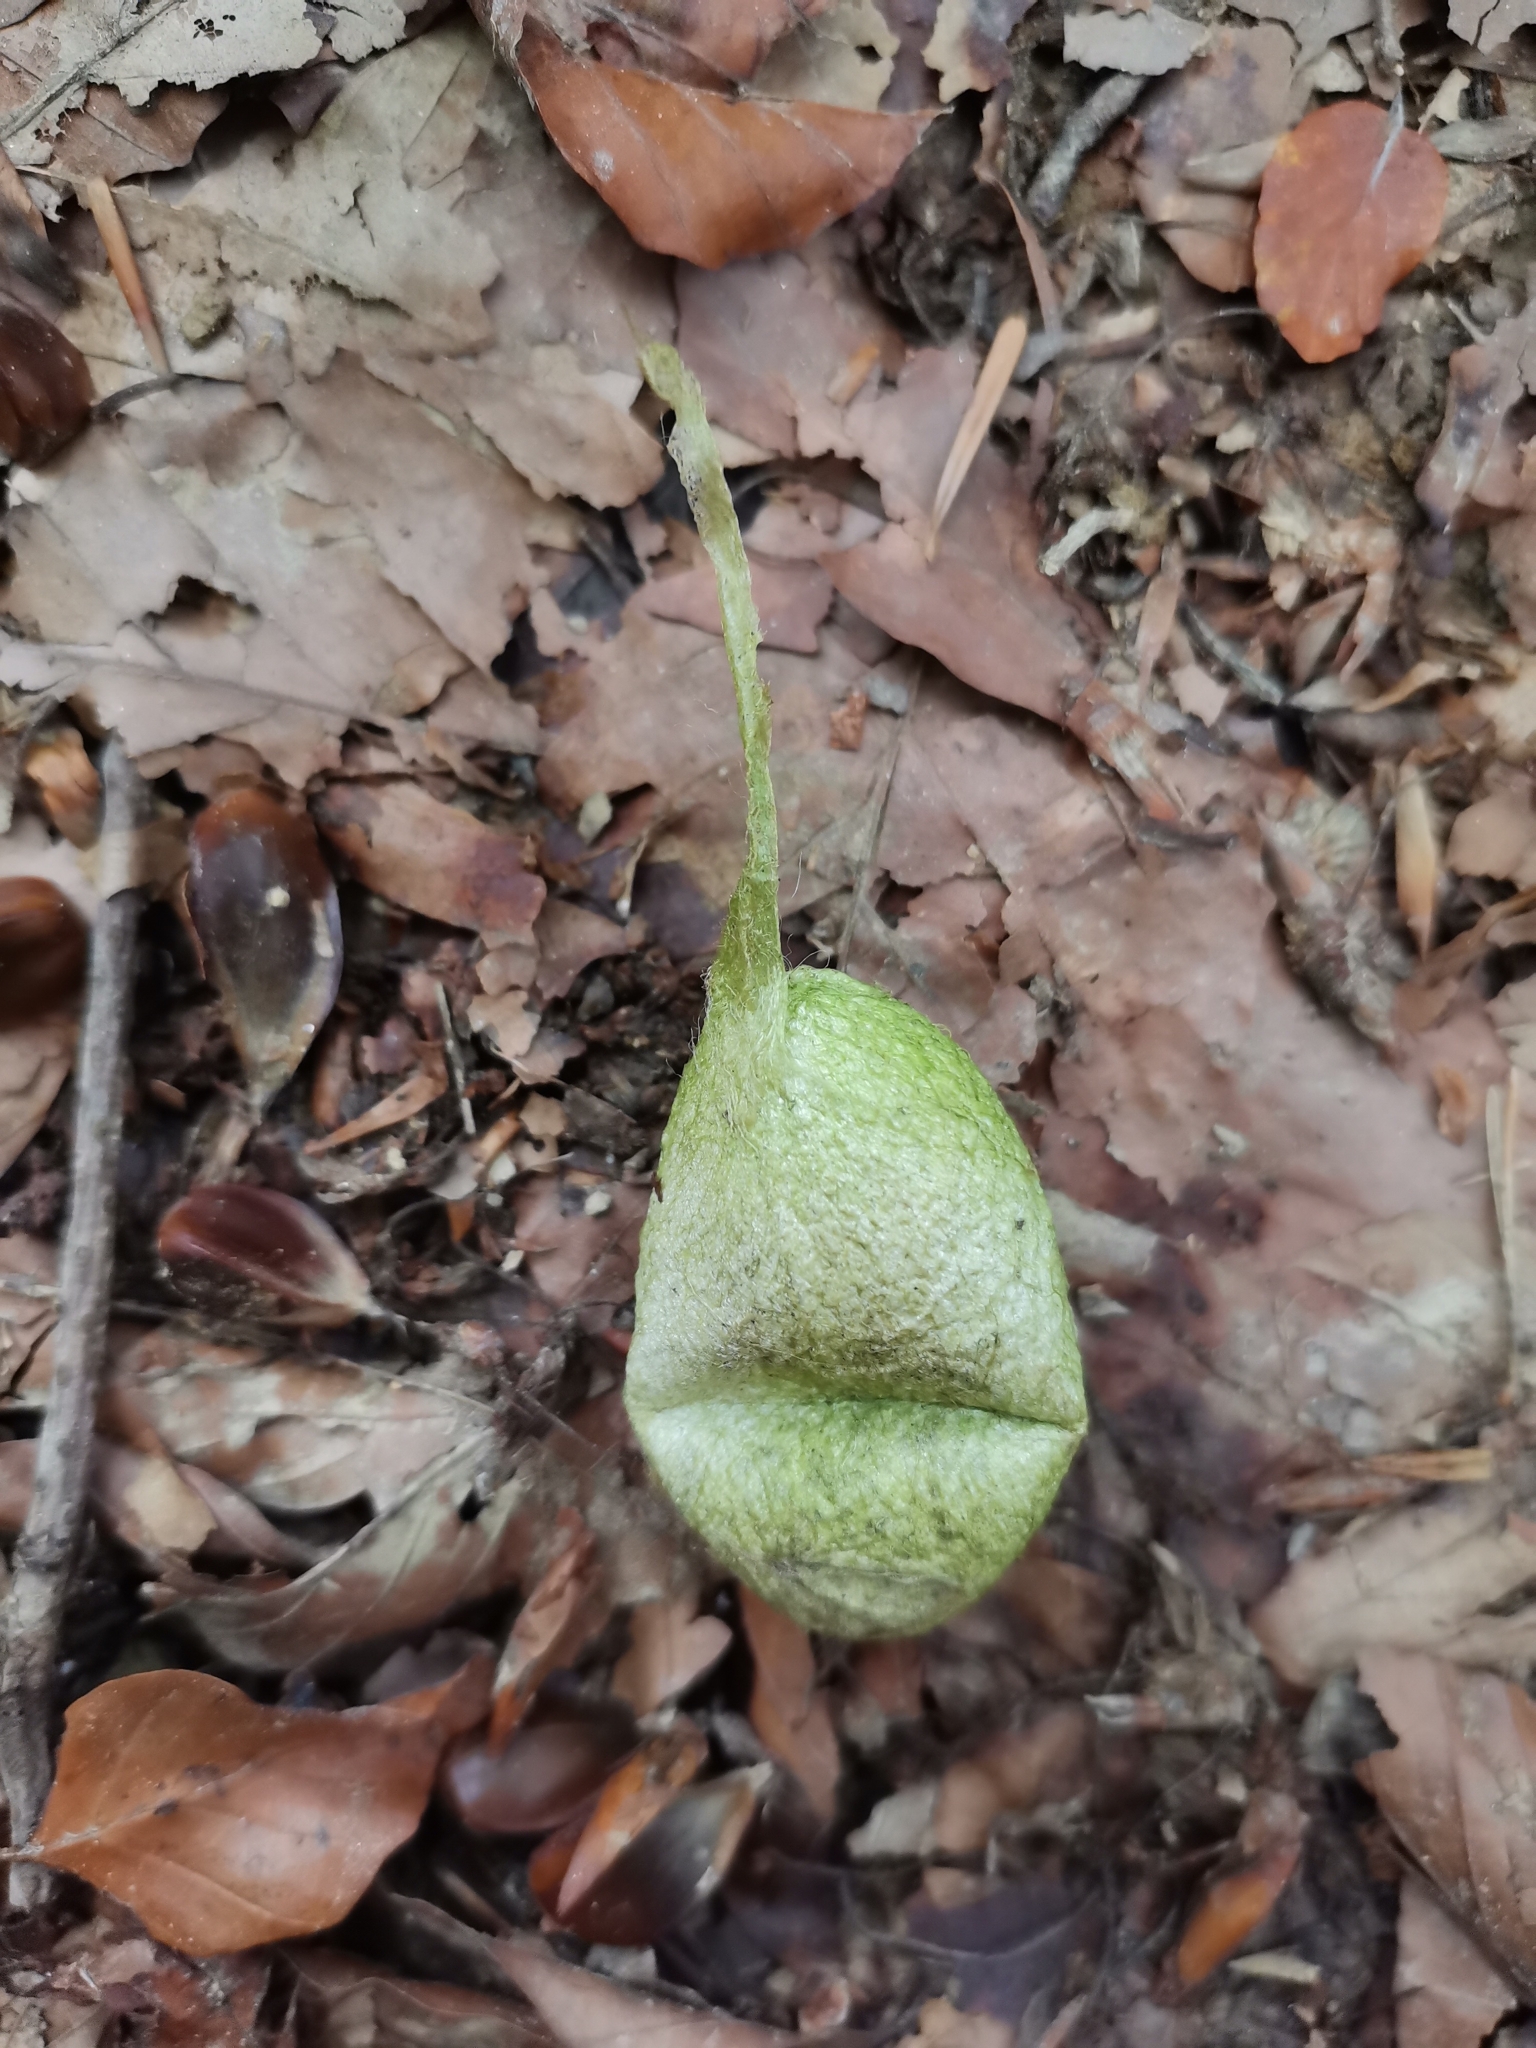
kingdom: Animalia
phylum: Arthropoda
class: Insecta
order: Lepidoptera
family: Saturniidae
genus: Antheraea
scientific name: Antheraea yamamai
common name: Japanese oak silk moth
